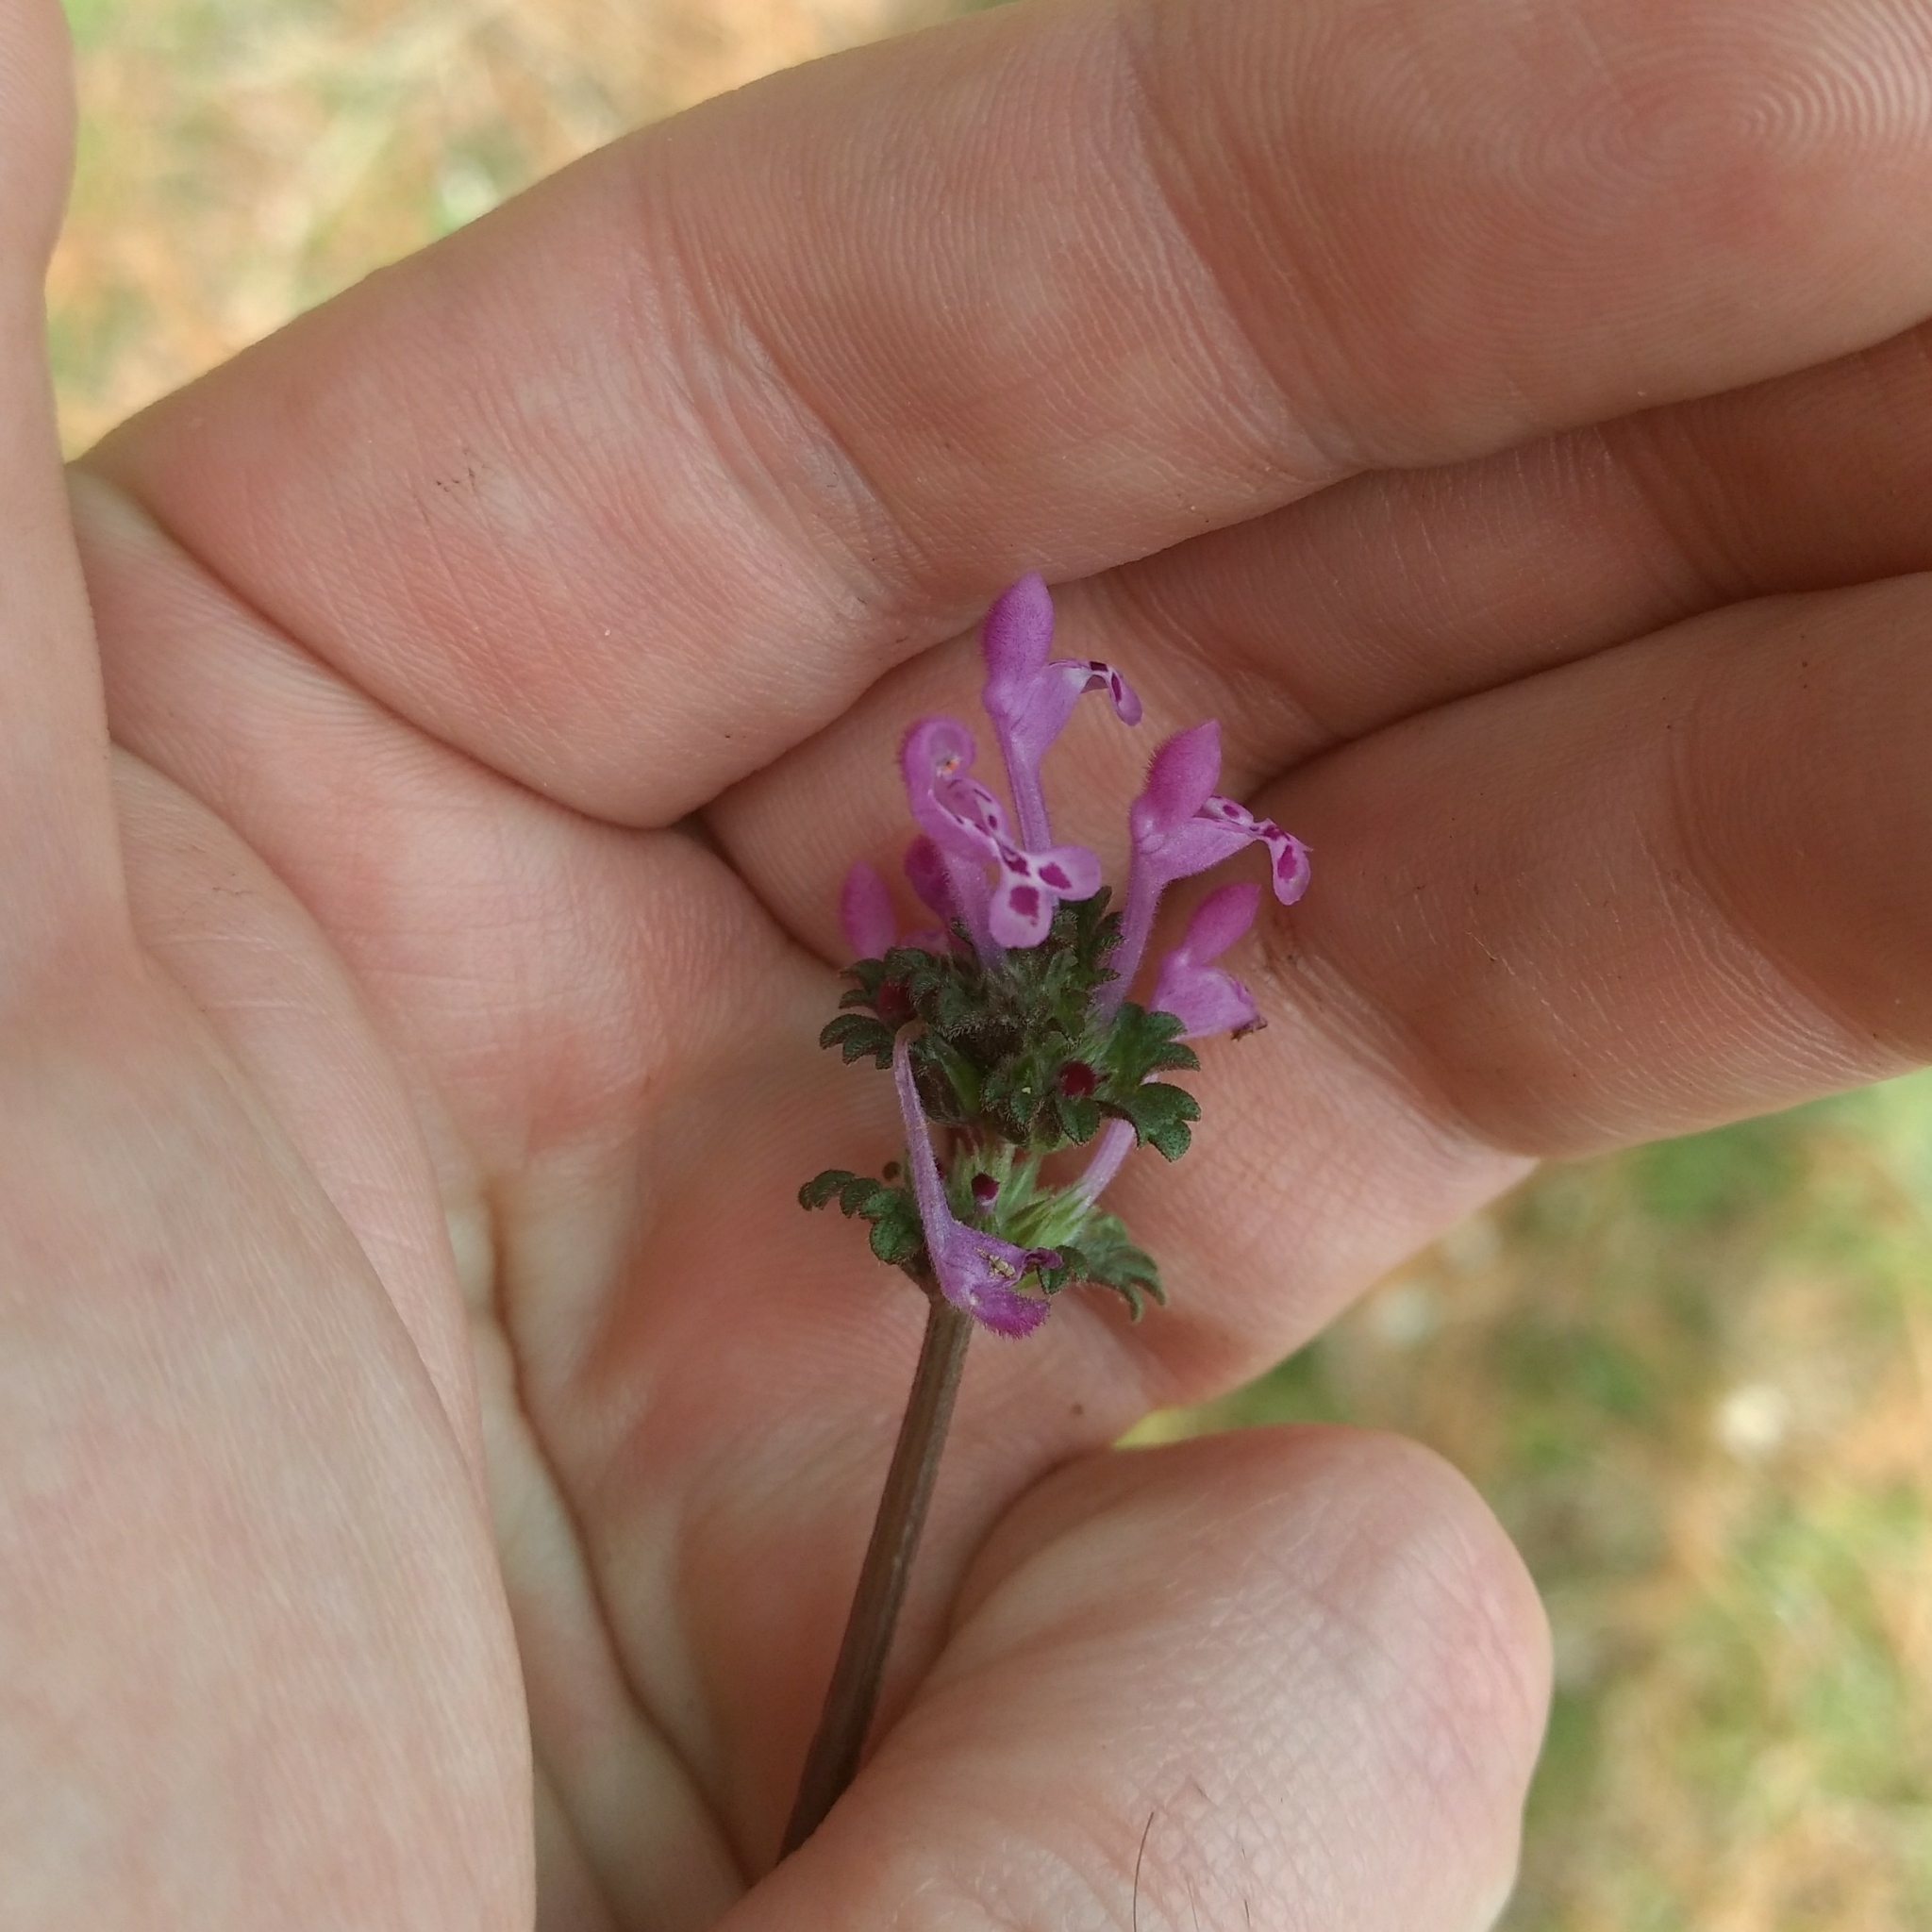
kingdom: Plantae
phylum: Tracheophyta
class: Magnoliopsida
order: Lamiales
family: Lamiaceae
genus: Lamium
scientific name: Lamium amplexicaule
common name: Henbit dead-nettle
